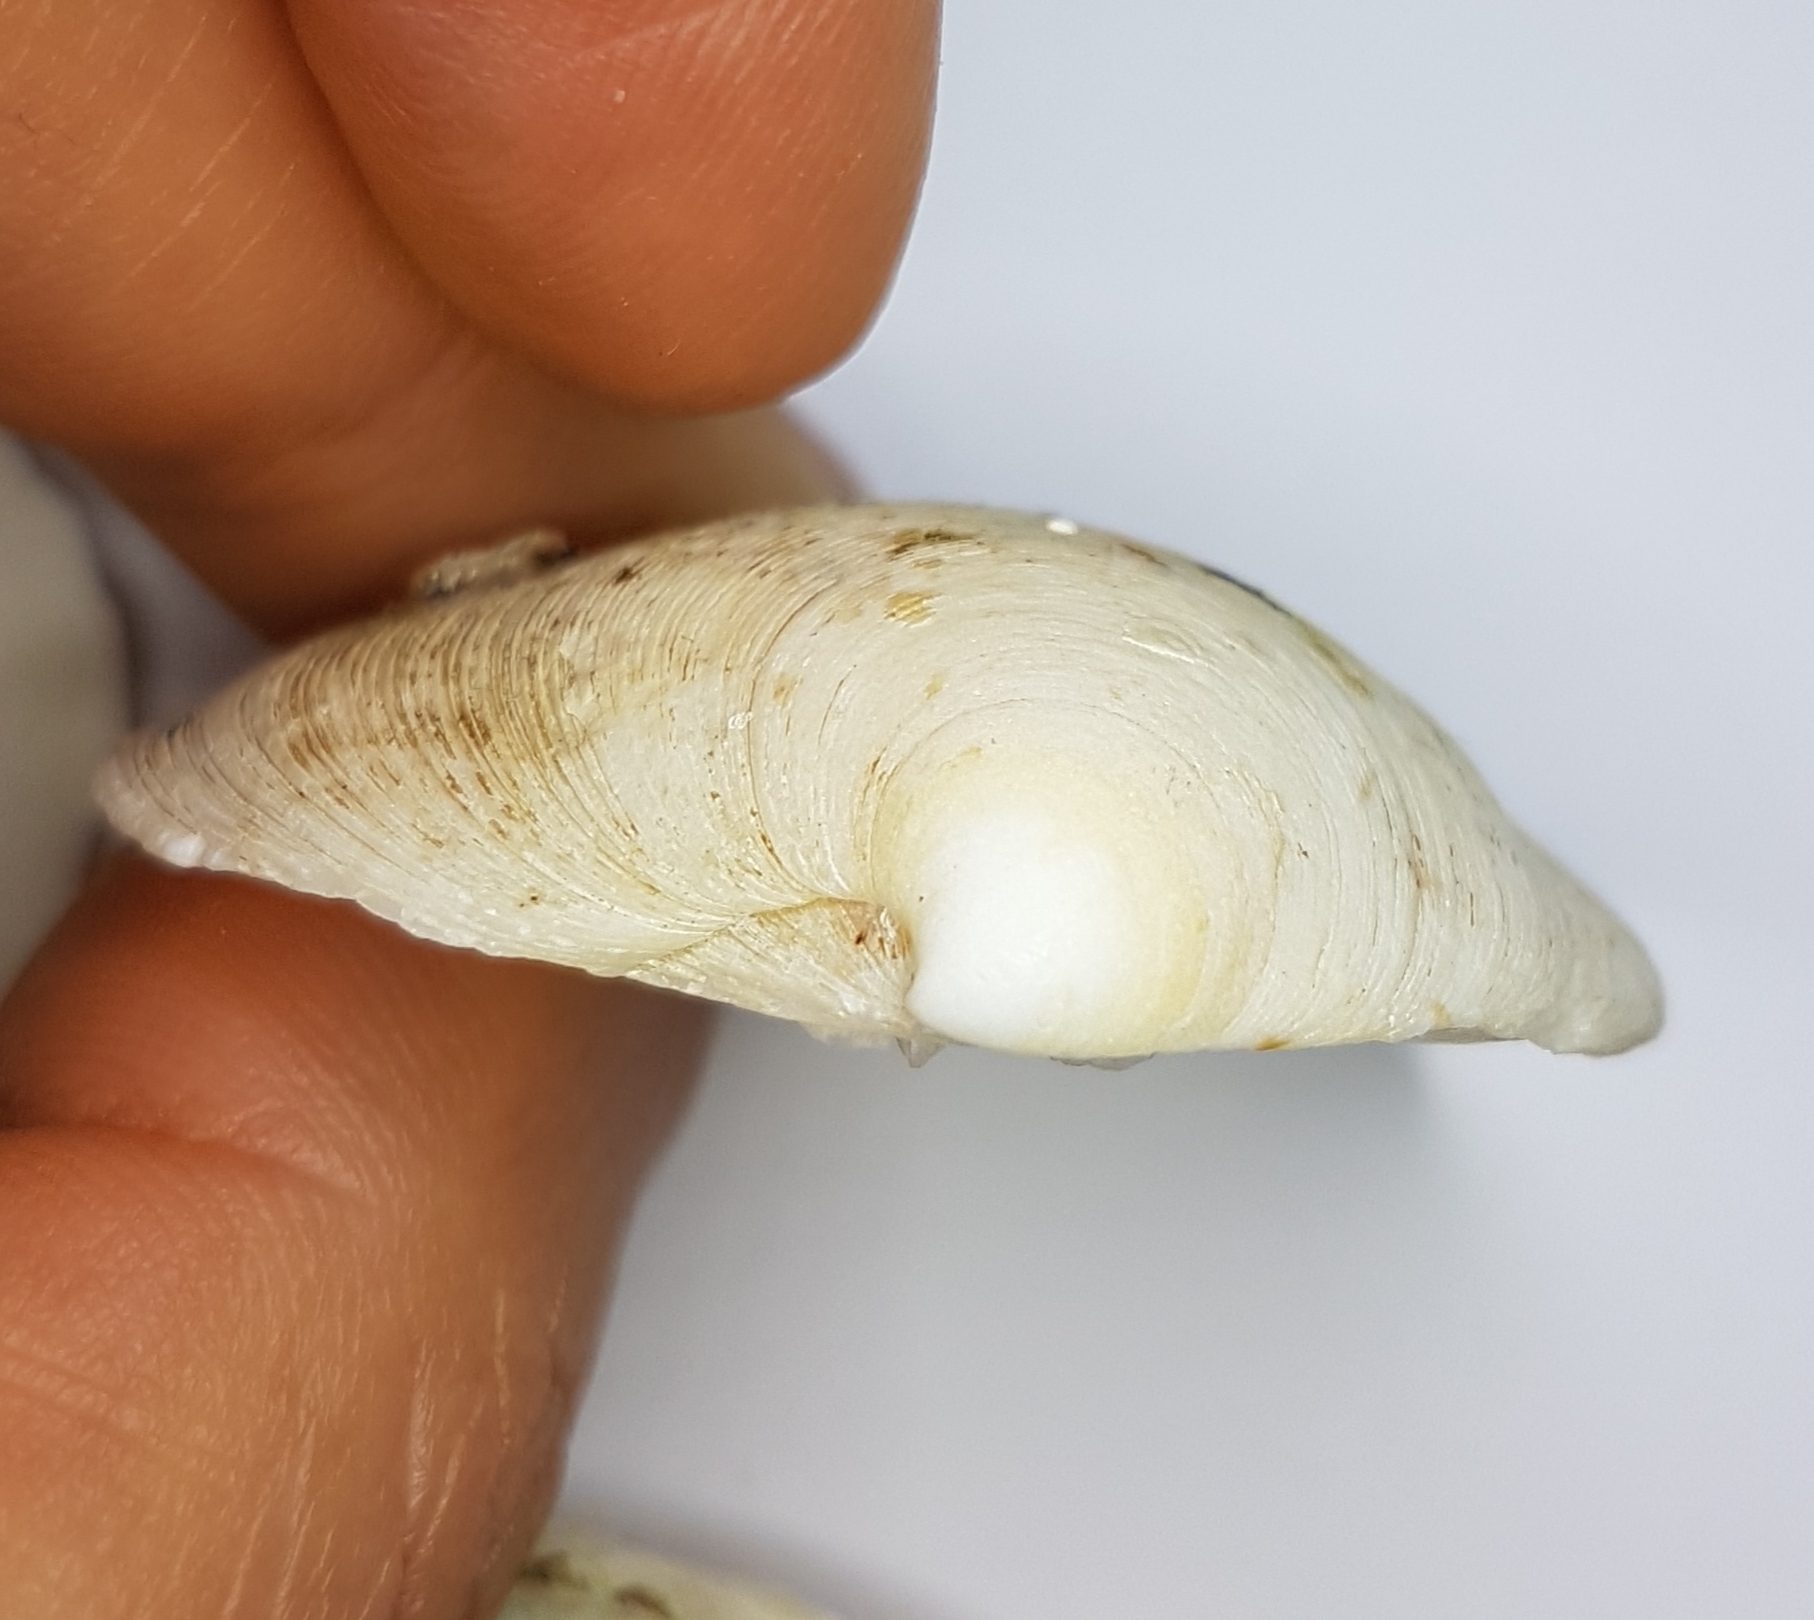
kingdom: Animalia
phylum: Mollusca
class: Bivalvia
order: Venerida
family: Veneridae
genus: Dosinia
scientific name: Dosinia exoleta
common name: Rayed artemis
